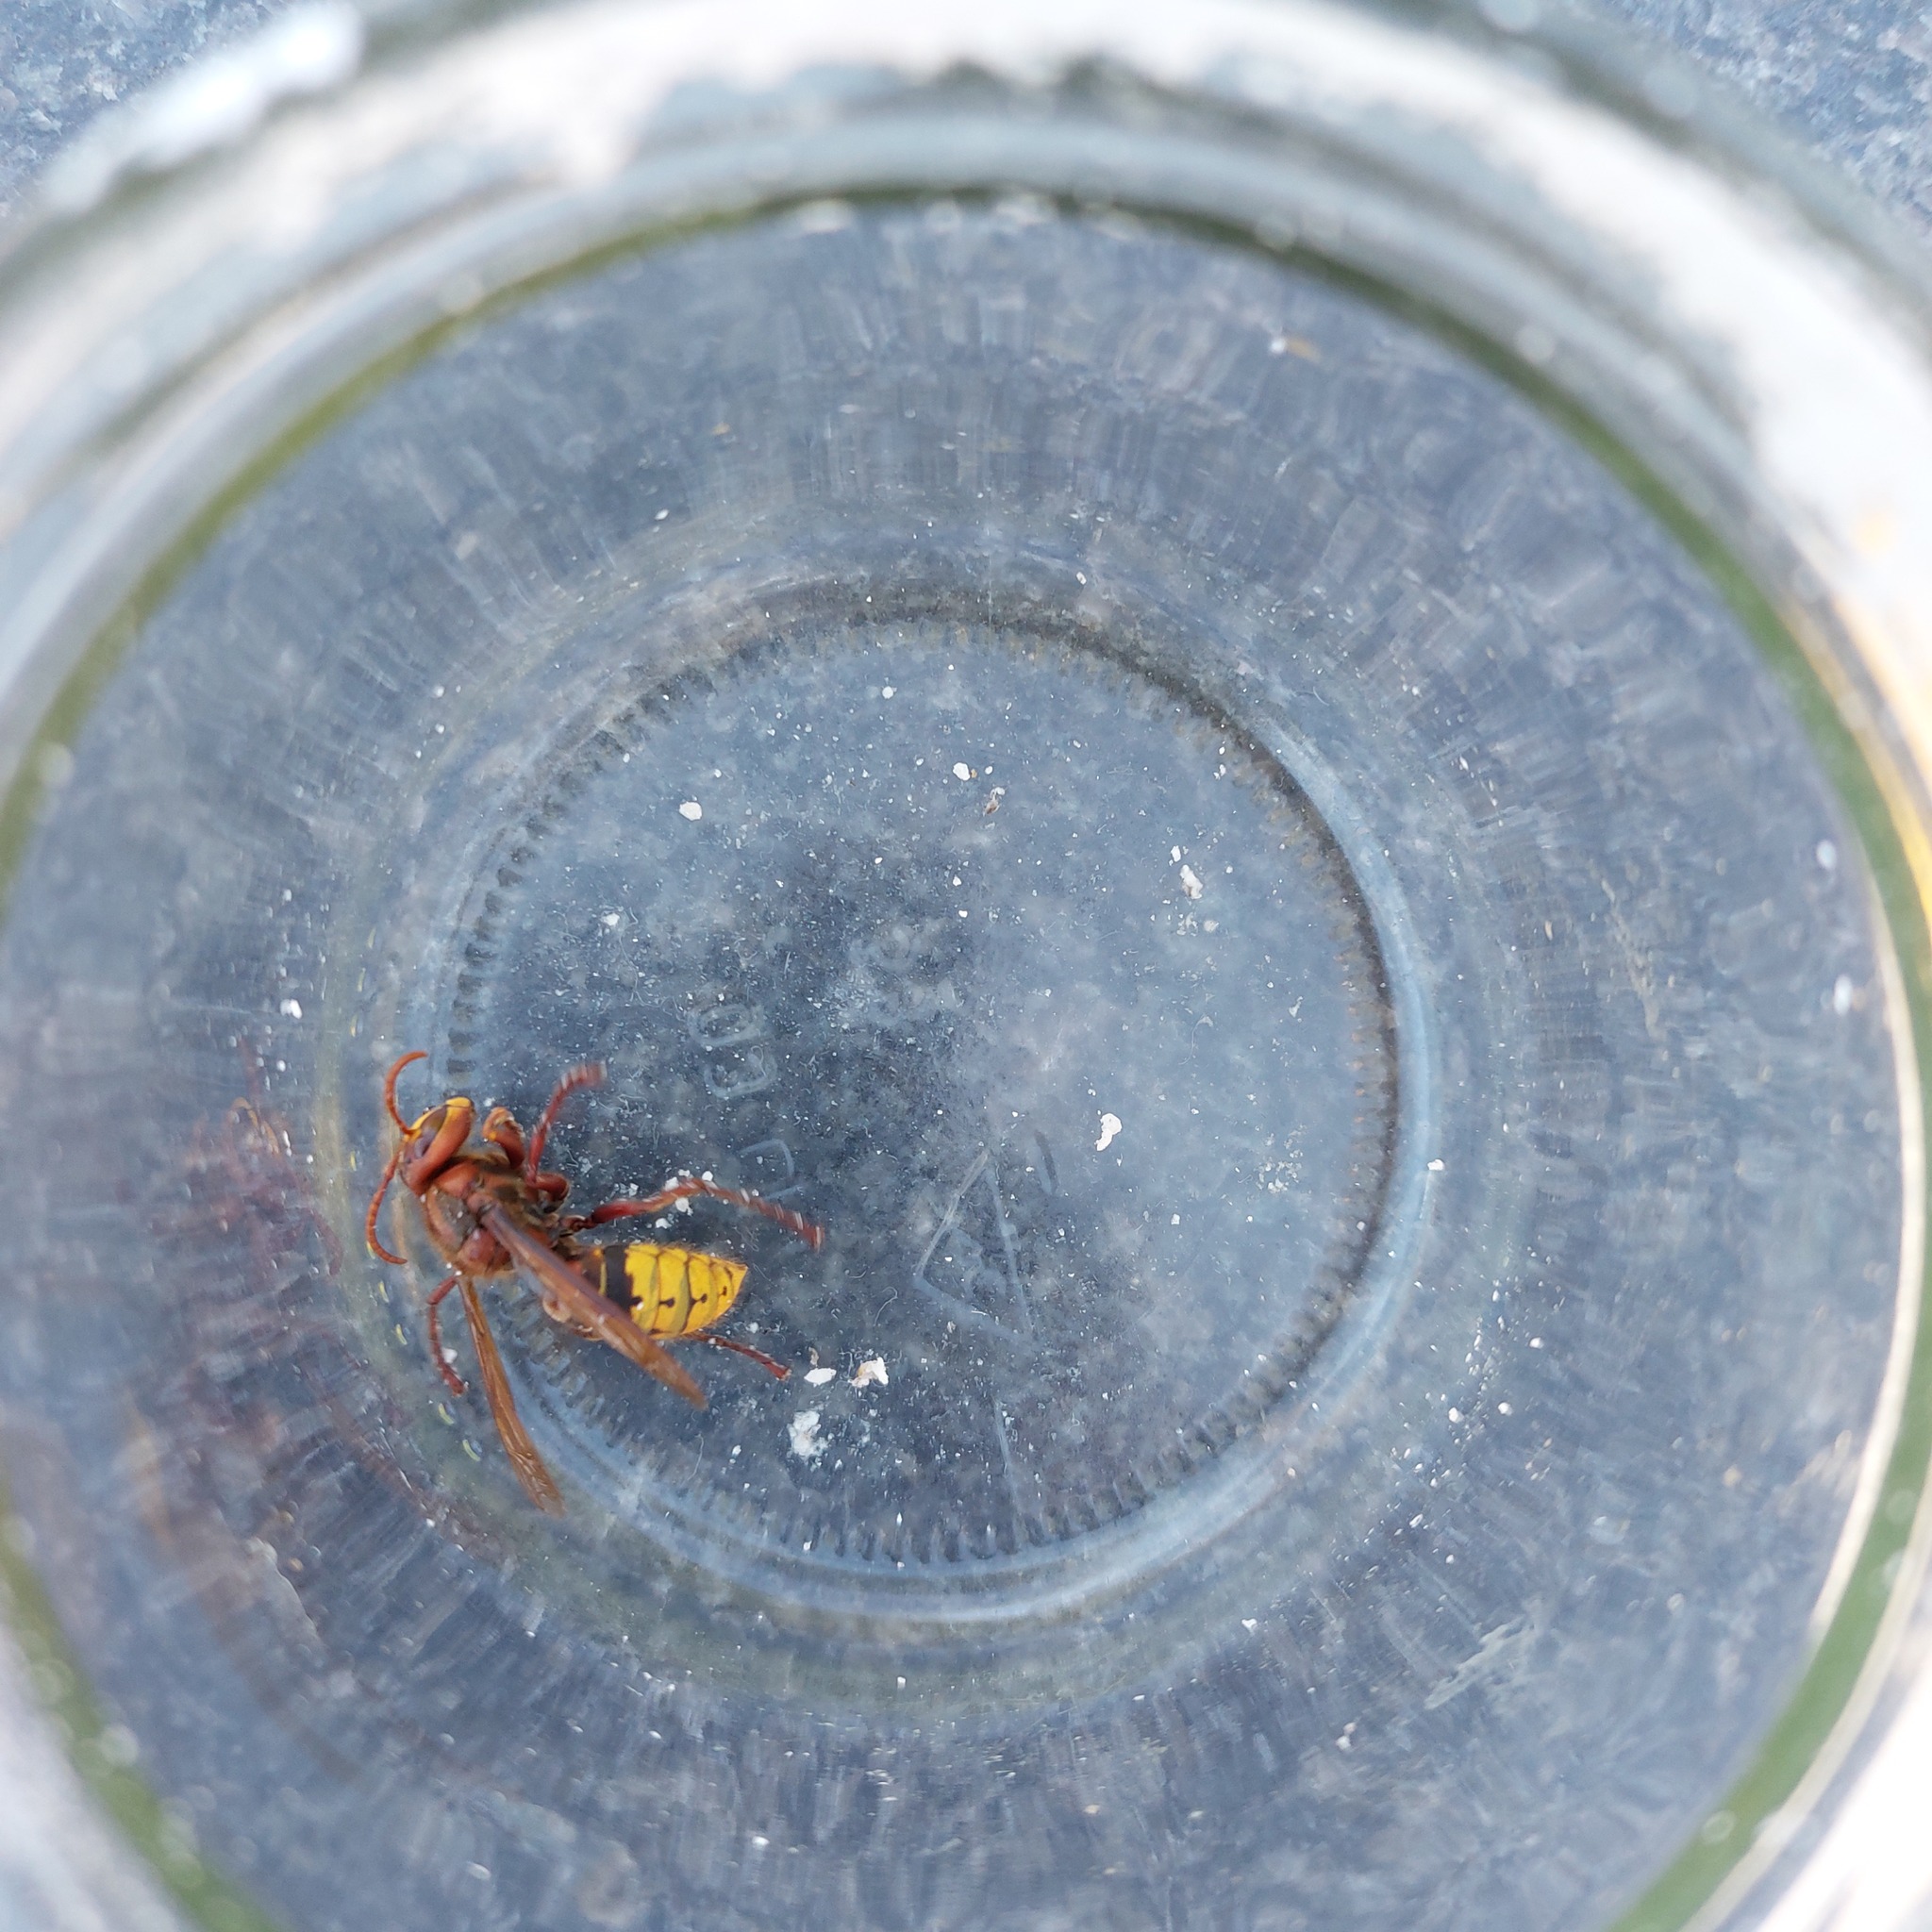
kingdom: Animalia
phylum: Arthropoda
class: Insecta
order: Hymenoptera
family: Vespidae
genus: Vespa
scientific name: Vespa crabro
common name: Hornet
